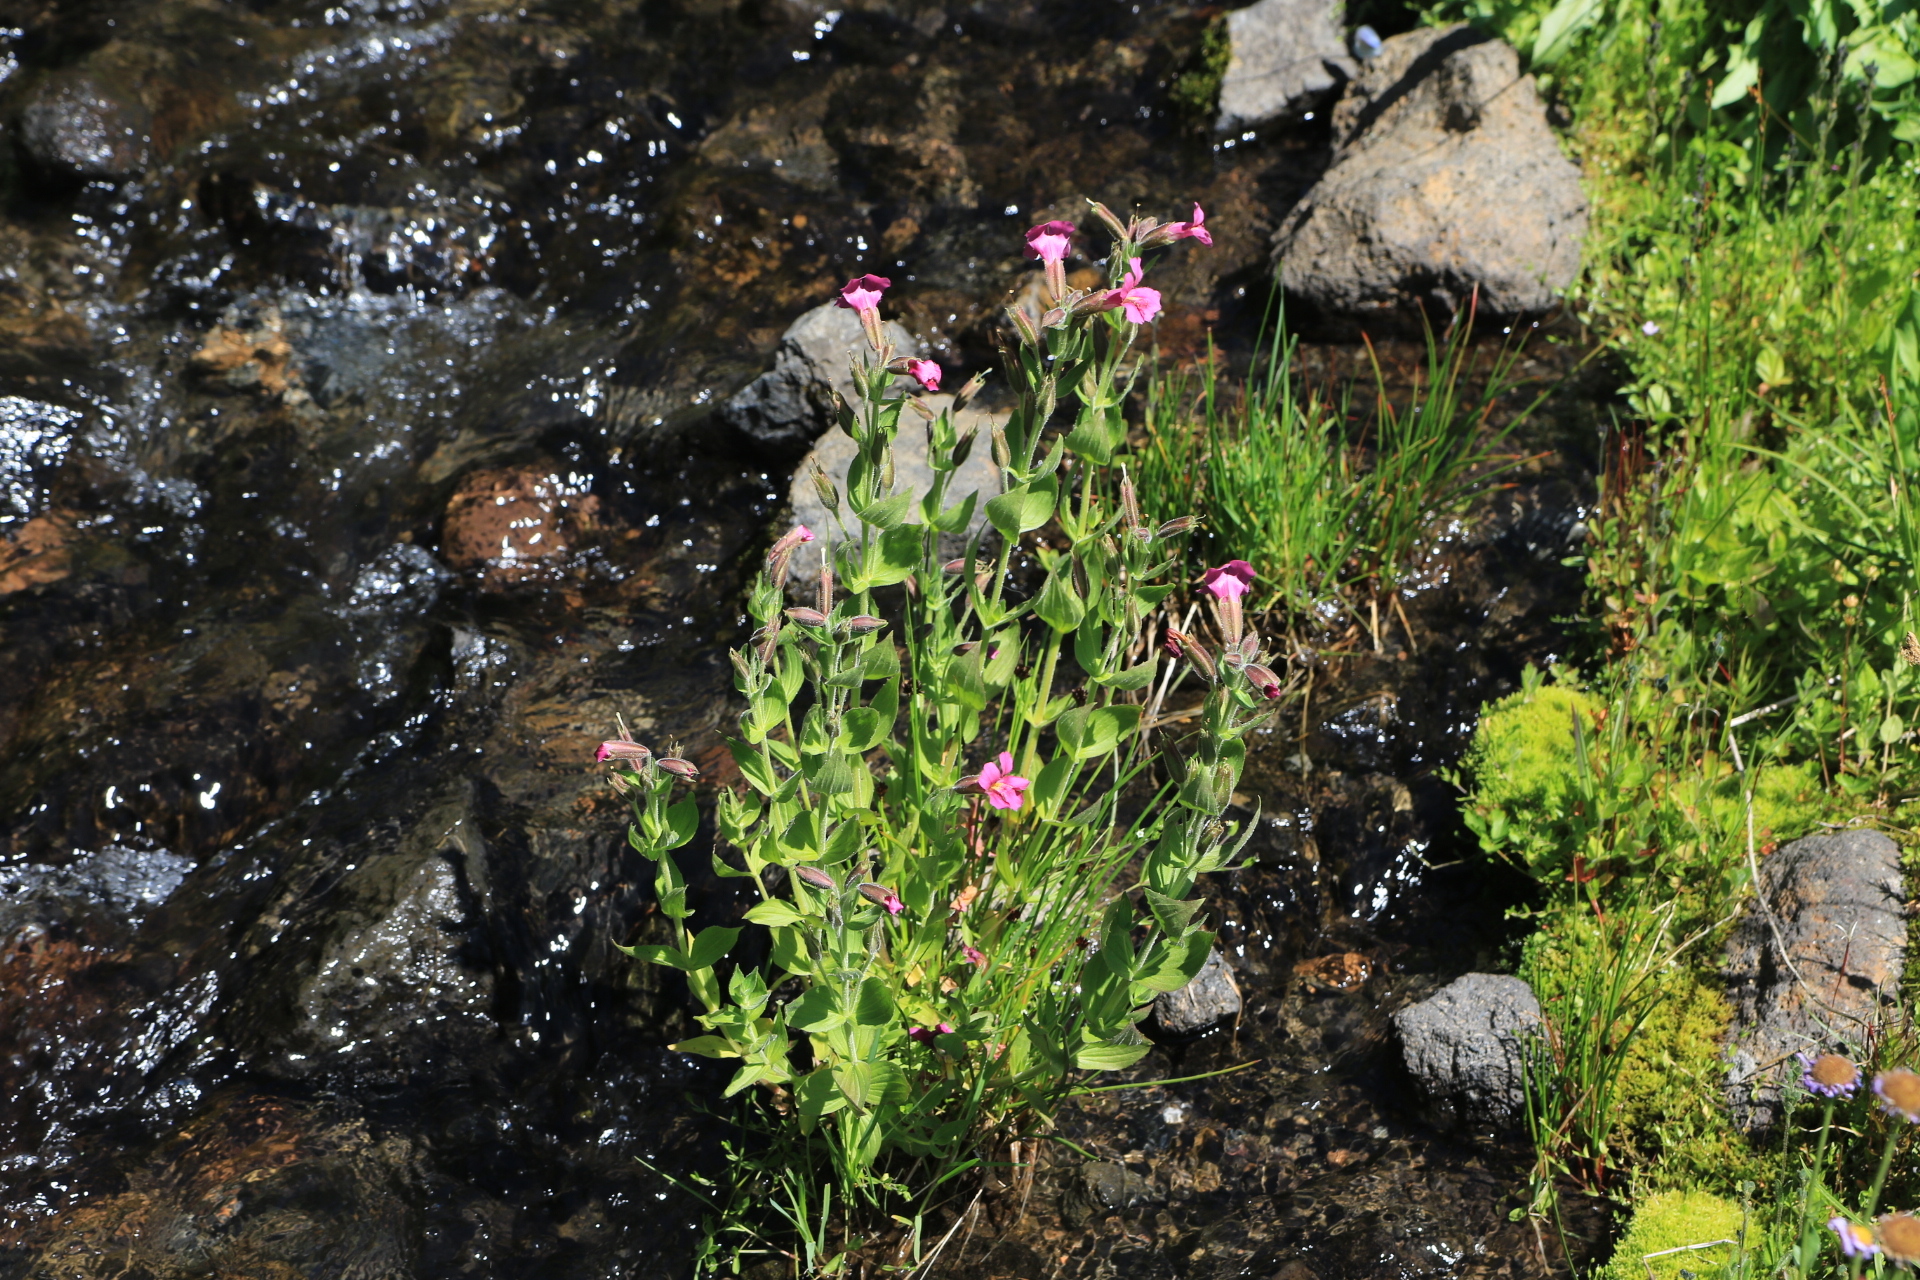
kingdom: Plantae
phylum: Tracheophyta
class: Magnoliopsida
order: Lamiales
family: Phrymaceae
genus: Erythranthe
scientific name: Erythranthe lewisii
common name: Lewis's monkey-flower
